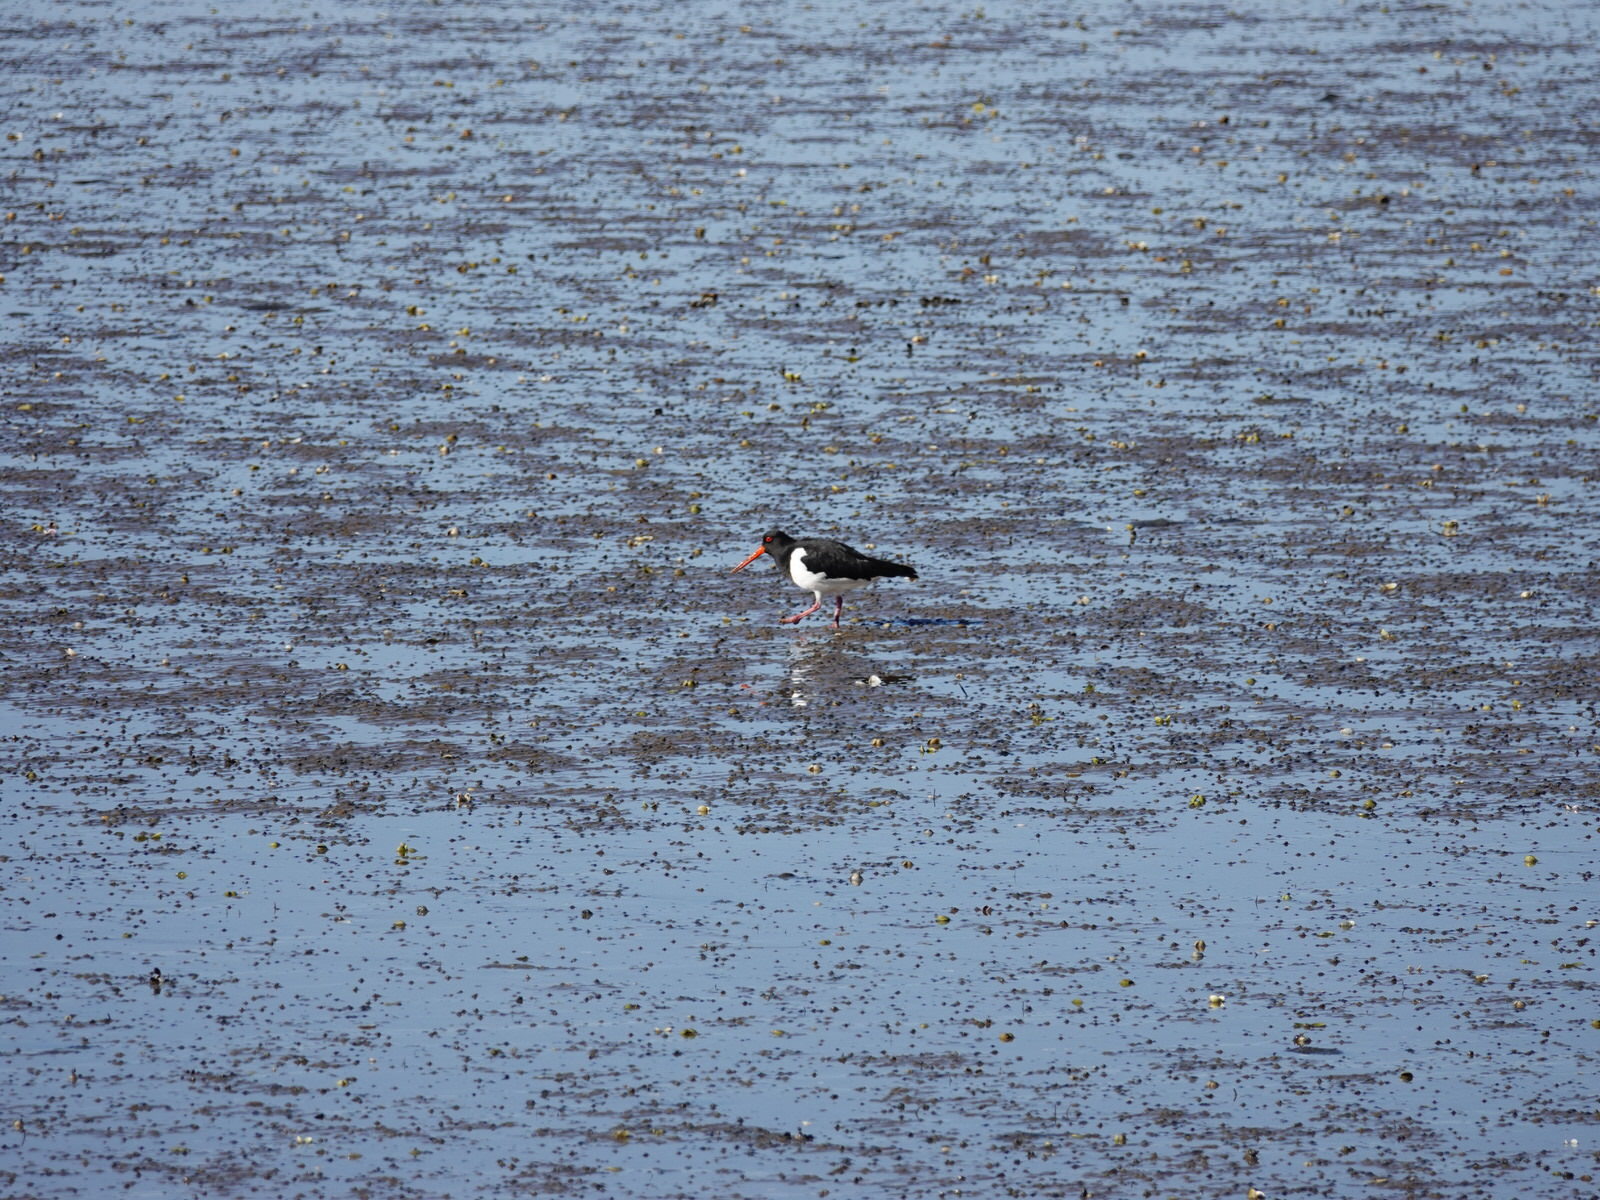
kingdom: Animalia
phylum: Chordata
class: Aves
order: Charadriiformes
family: Haematopodidae
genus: Haematopus
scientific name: Haematopus finschi
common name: South island oystercatcher
